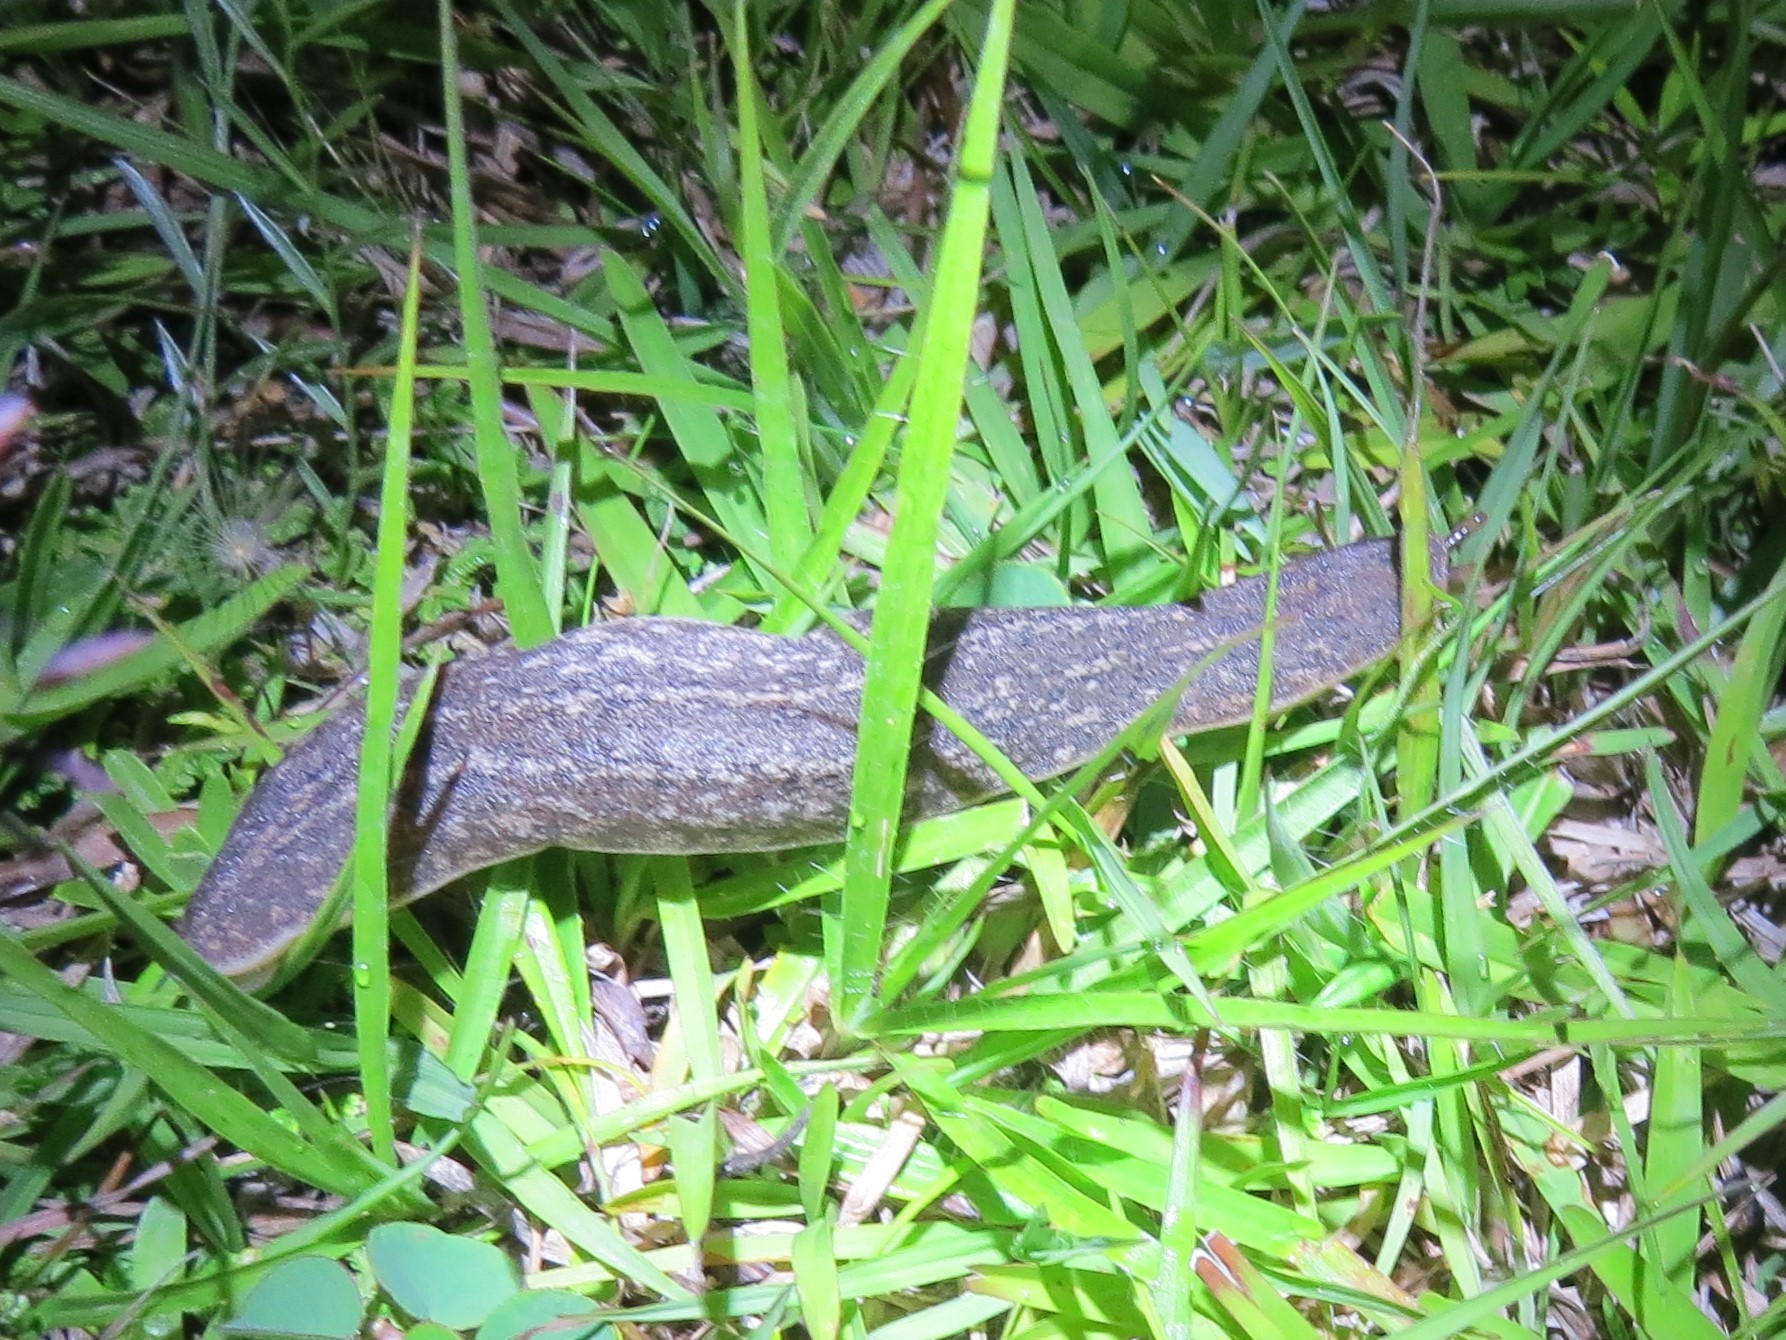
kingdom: Animalia
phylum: Mollusca
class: Gastropoda
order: Systellommatophora
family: Veronicellidae
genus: Phyllocaulis
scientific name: Phyllocaulis soleiformis
